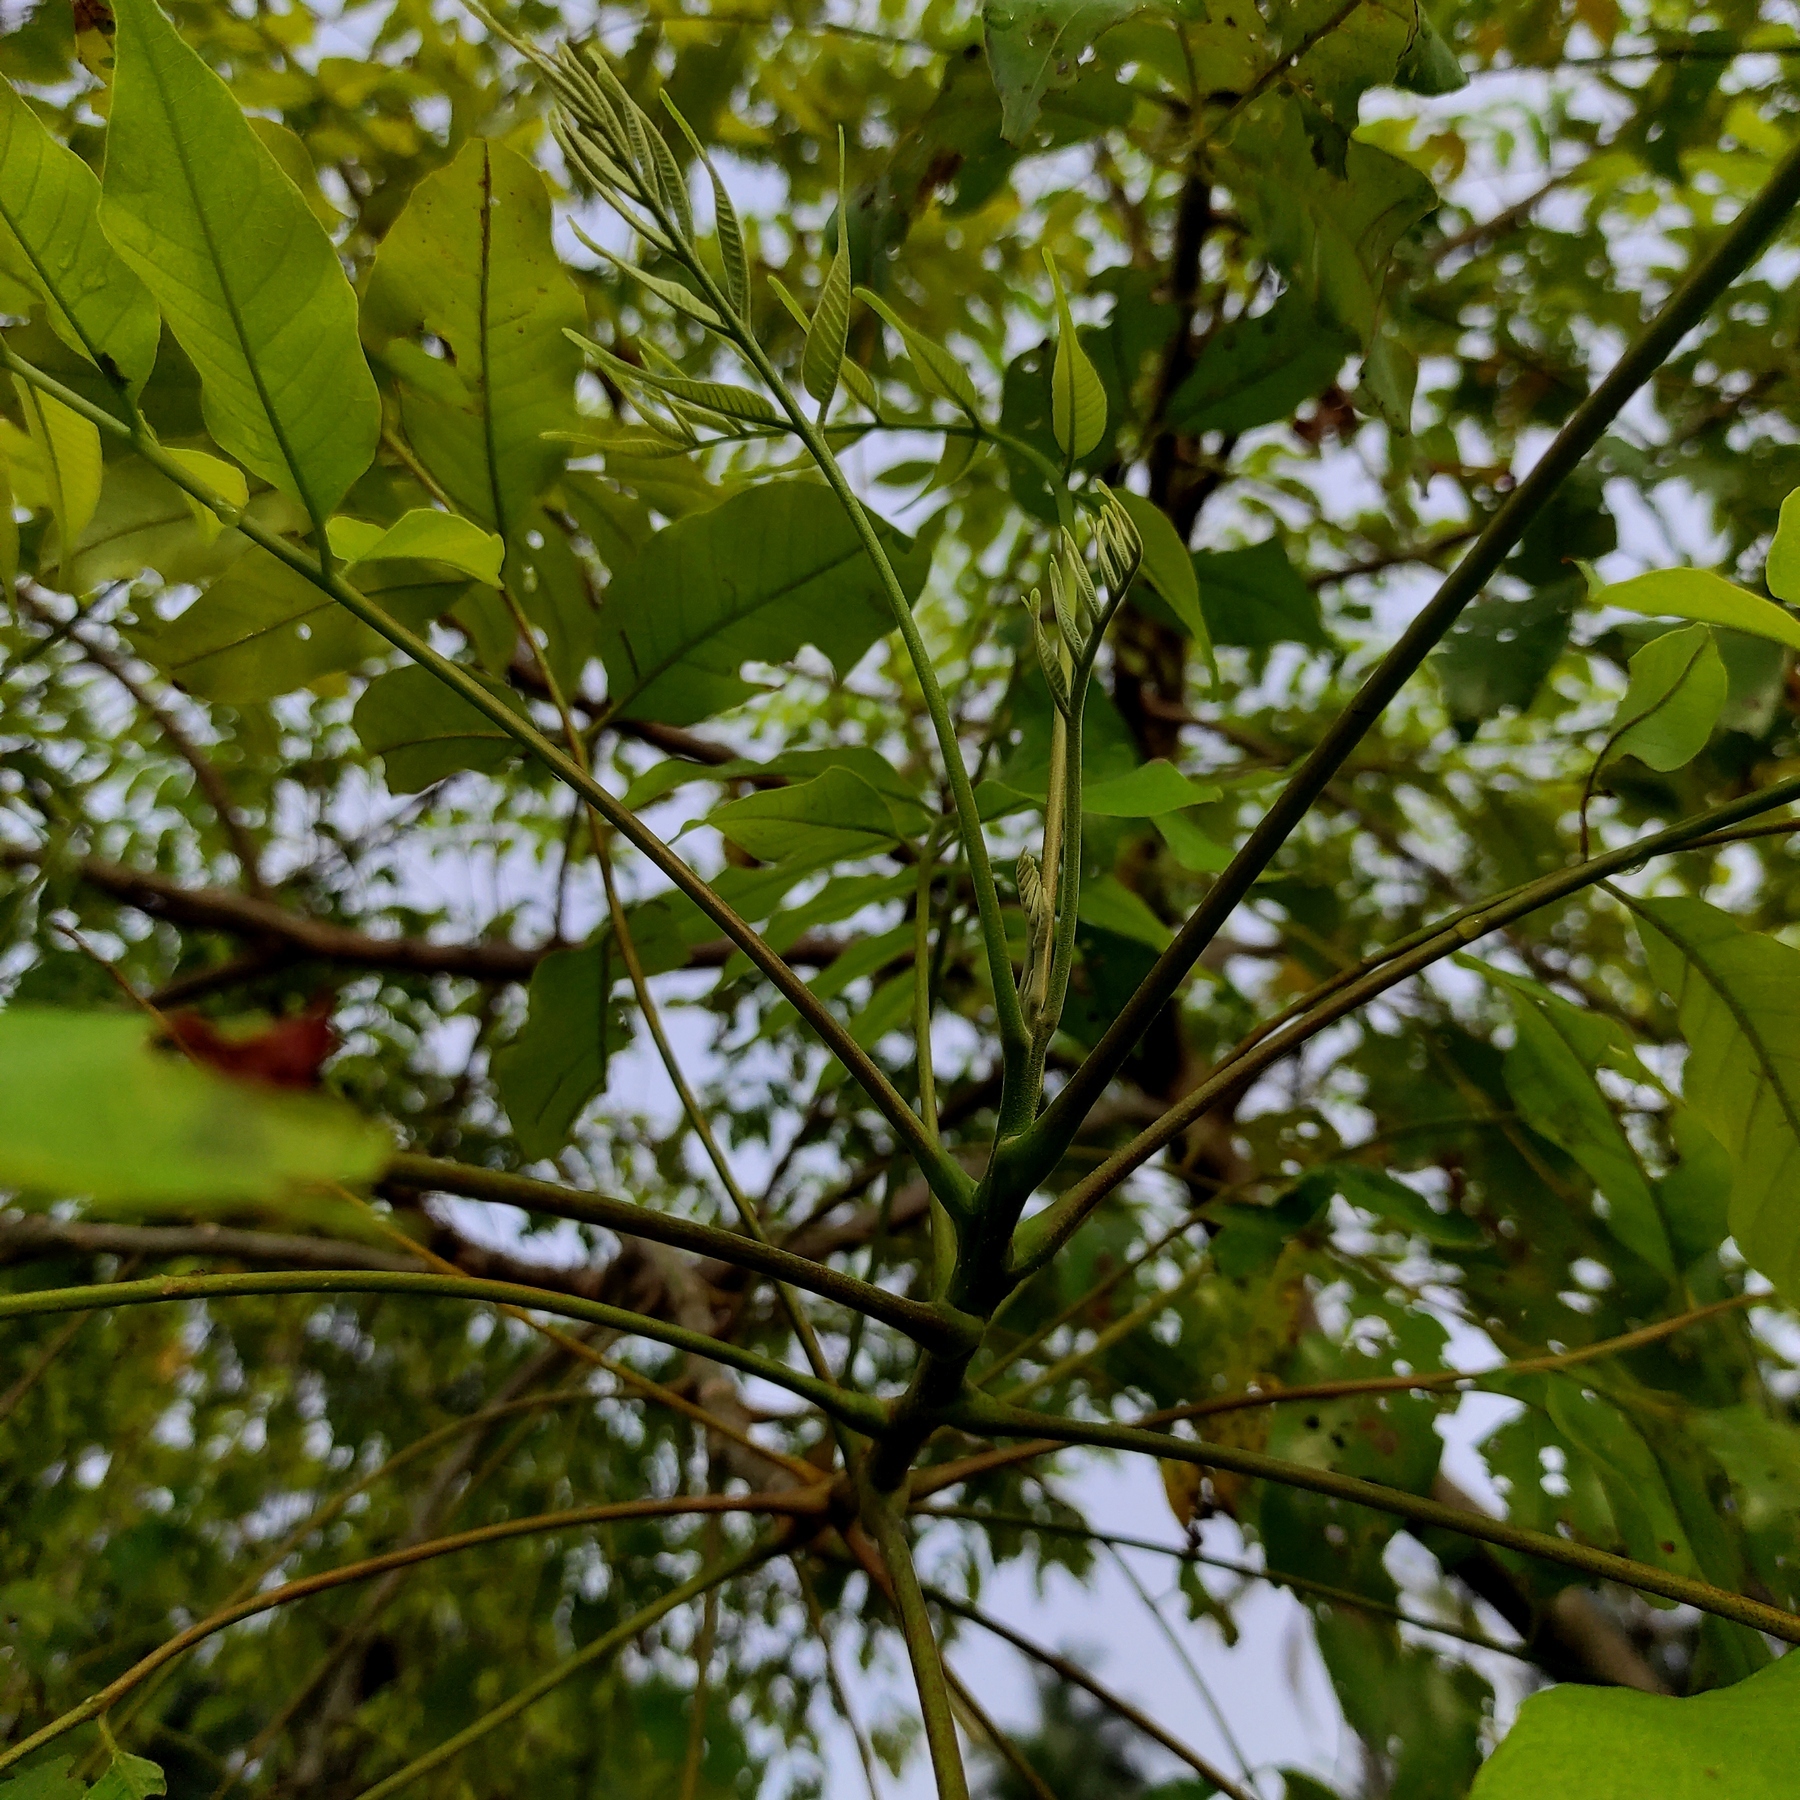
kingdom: Plantae
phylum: Tracheophyta
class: Magnoliopsida
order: Sapindales
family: Anacardiaceae
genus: Lannea
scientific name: Lannea coromandelica
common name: Indian ash tree
